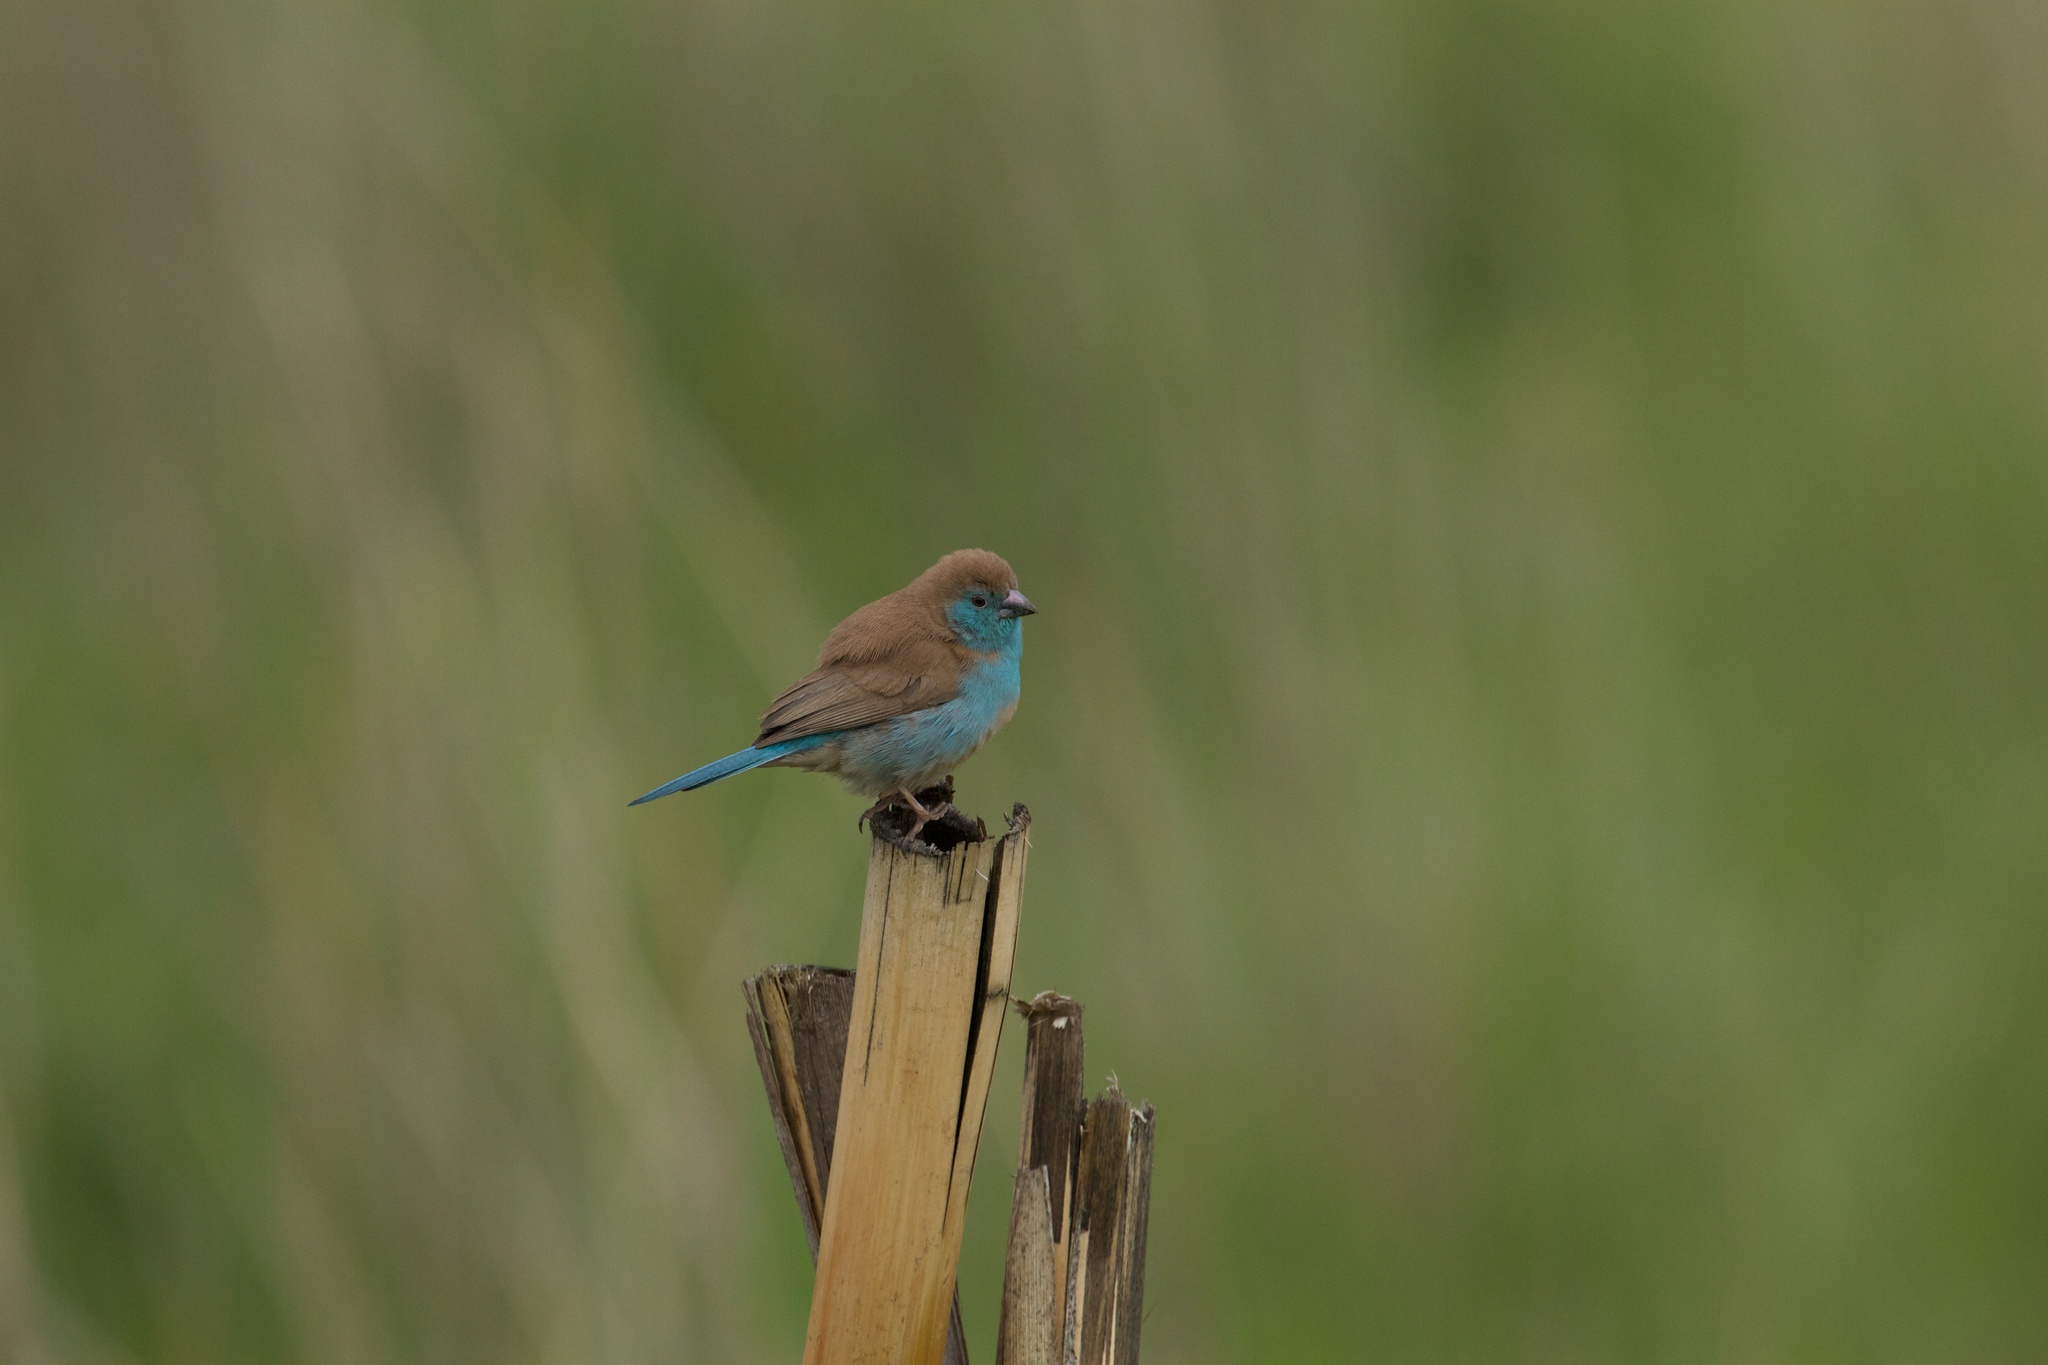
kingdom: Animalia
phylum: Chordata
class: Aves
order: Passeriformes
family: Estrildidae
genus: Uraeginthus
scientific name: Uraeginthus angolensis
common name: Blue waxbill
